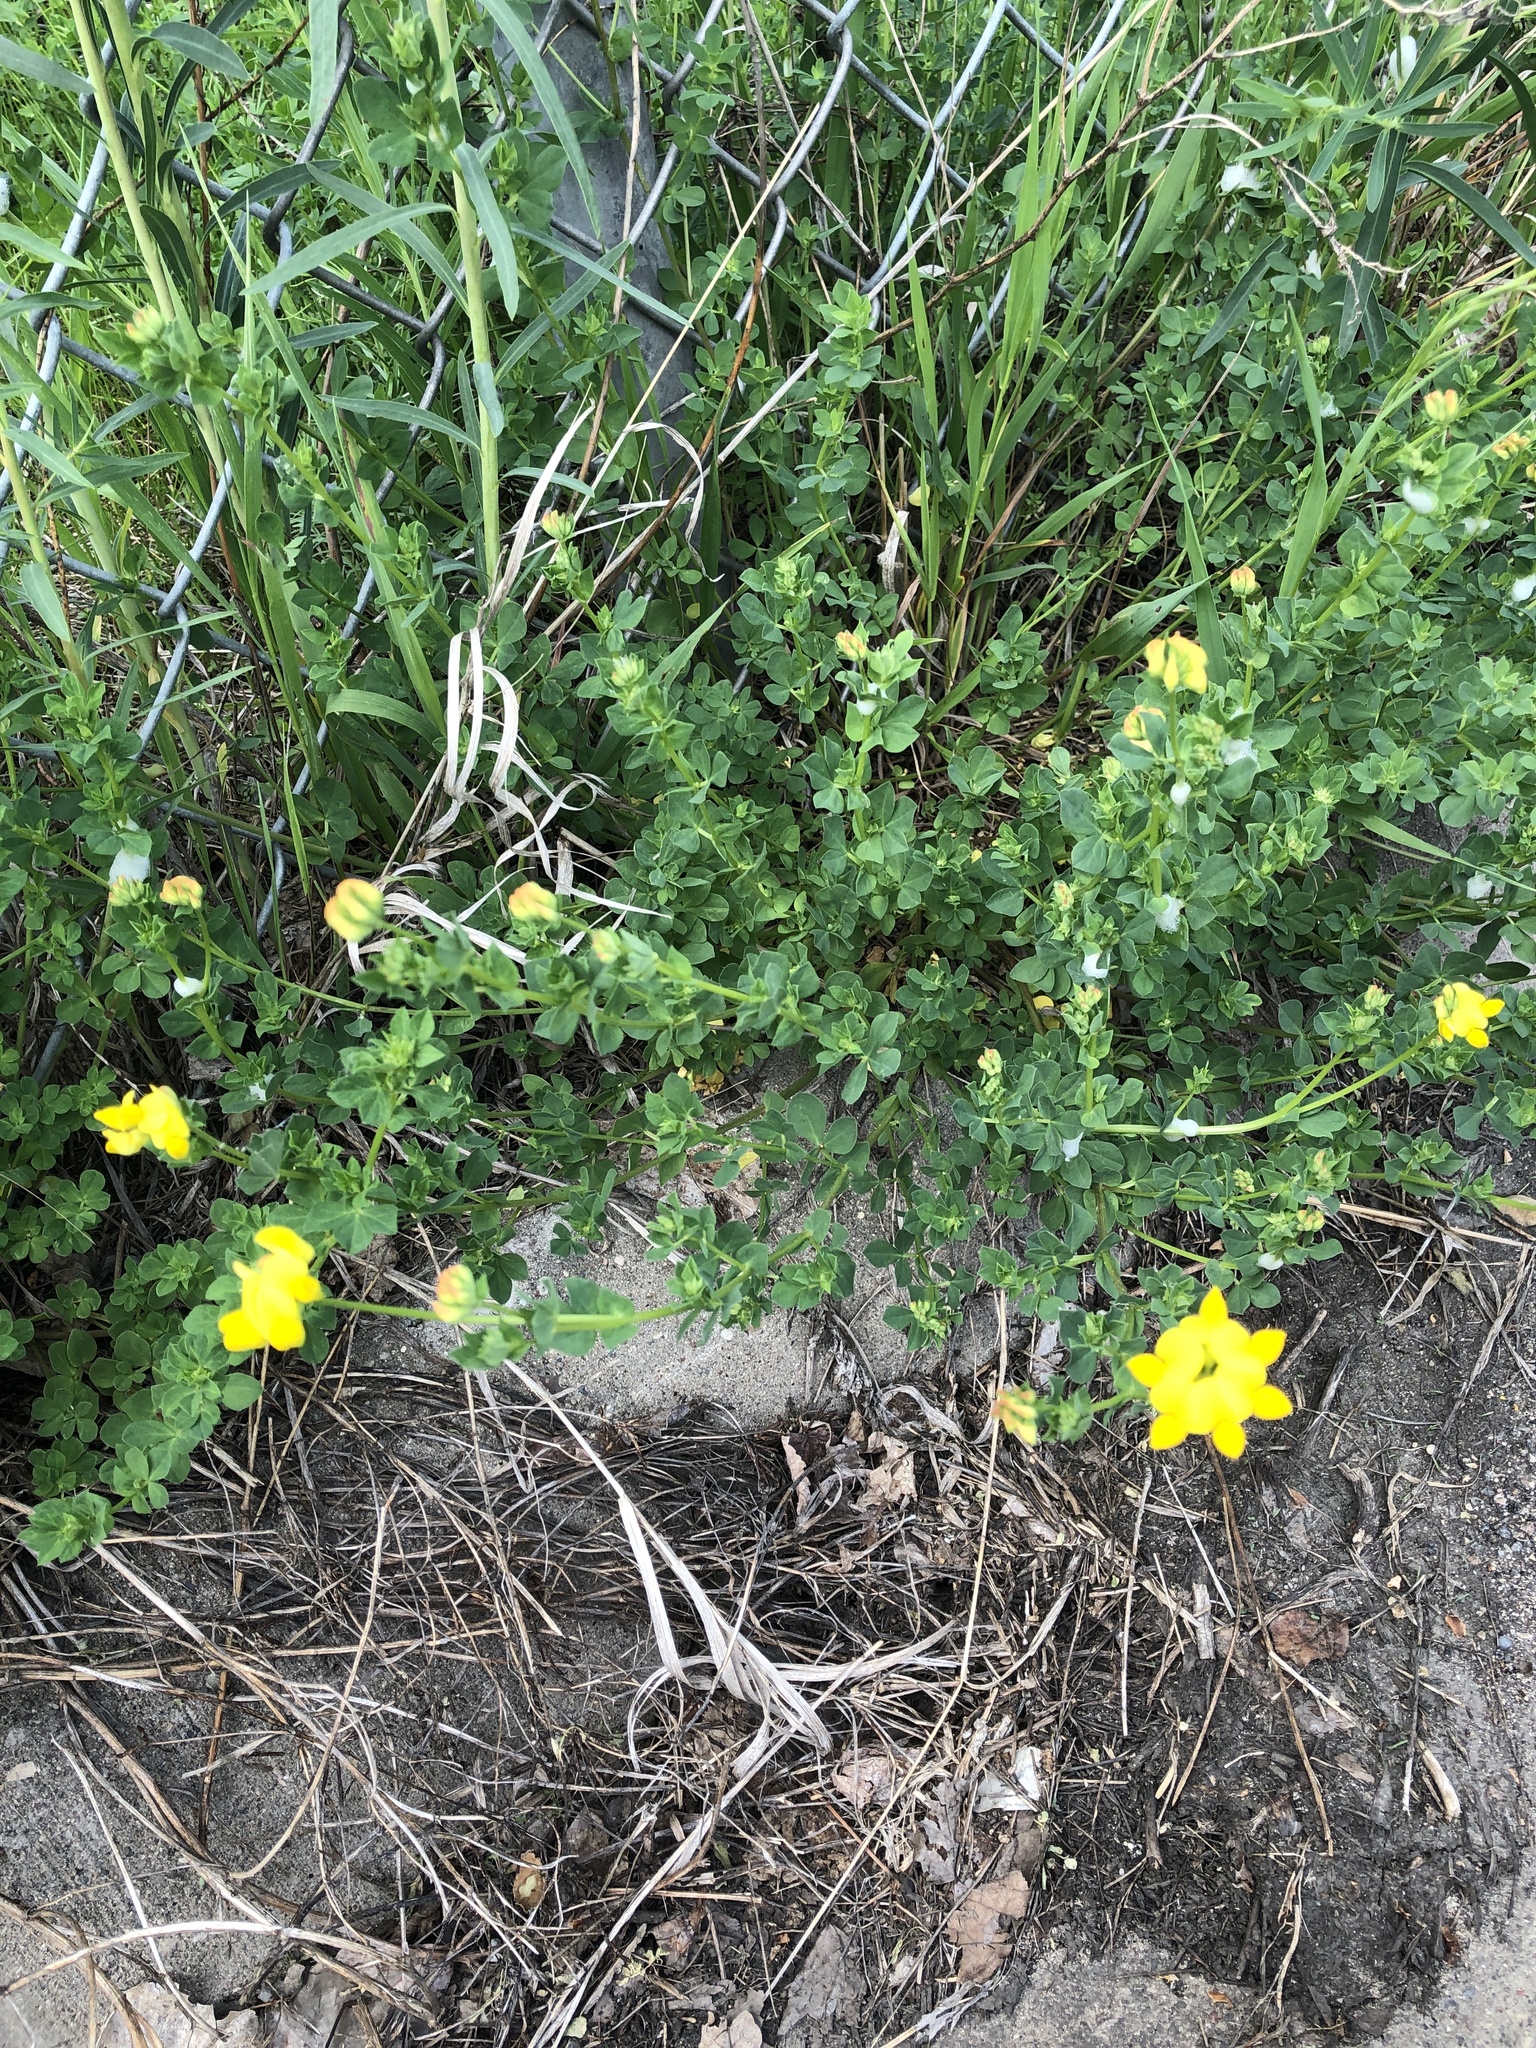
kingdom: Plantae
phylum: Tracheophyta
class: Magnoliopsida
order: Fabales
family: Fabaceae
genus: Lotus
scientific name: Lotus corniculatus
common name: Common bird's-foot-trefoil
